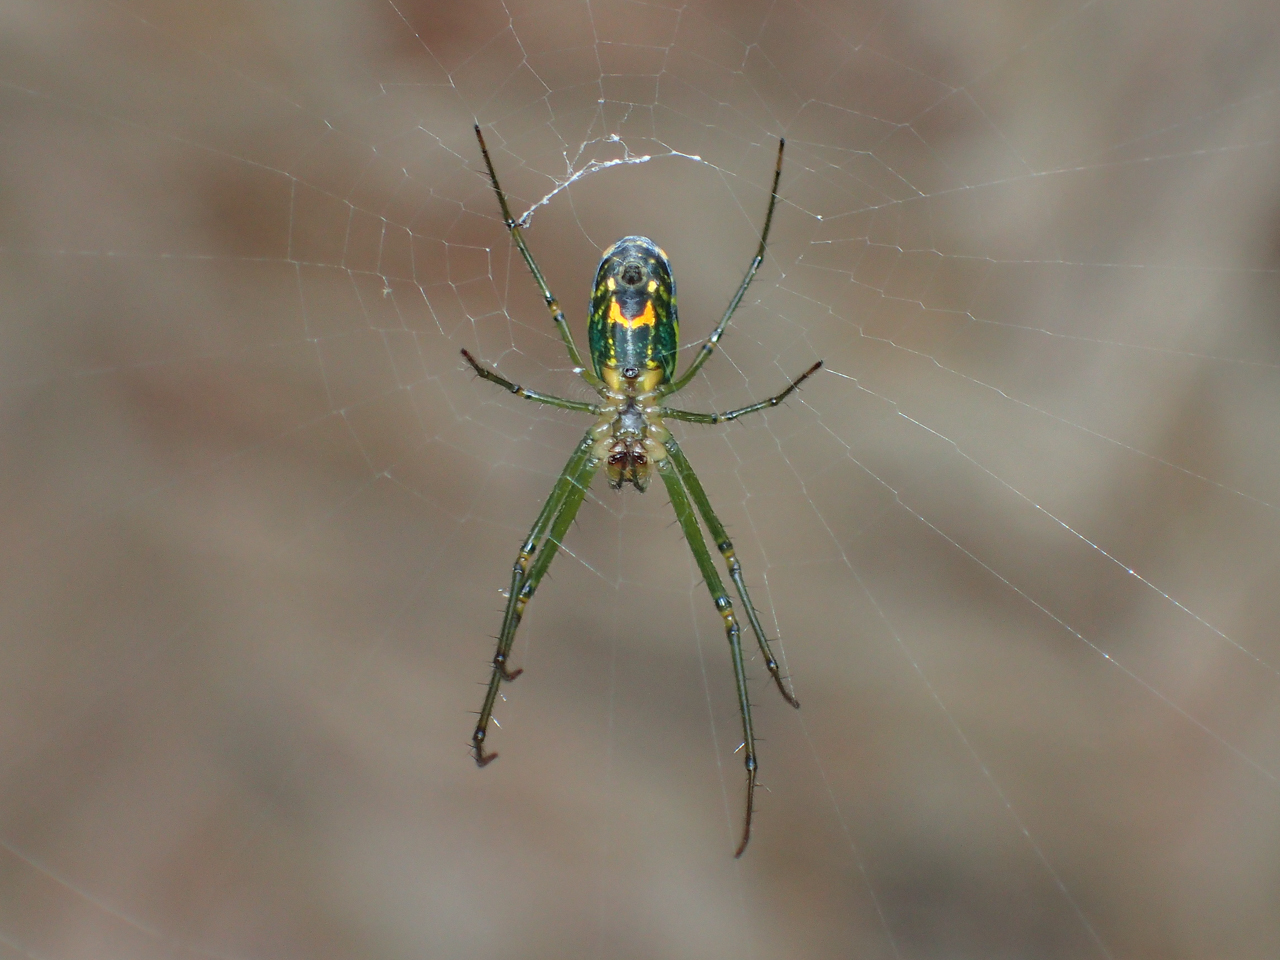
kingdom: Animalia
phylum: Arthropoda
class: Arachnida
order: Araneae
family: Tetragnathidae
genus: Leucauge
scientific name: Leucauge venusta
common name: Longjawed orb weavers
